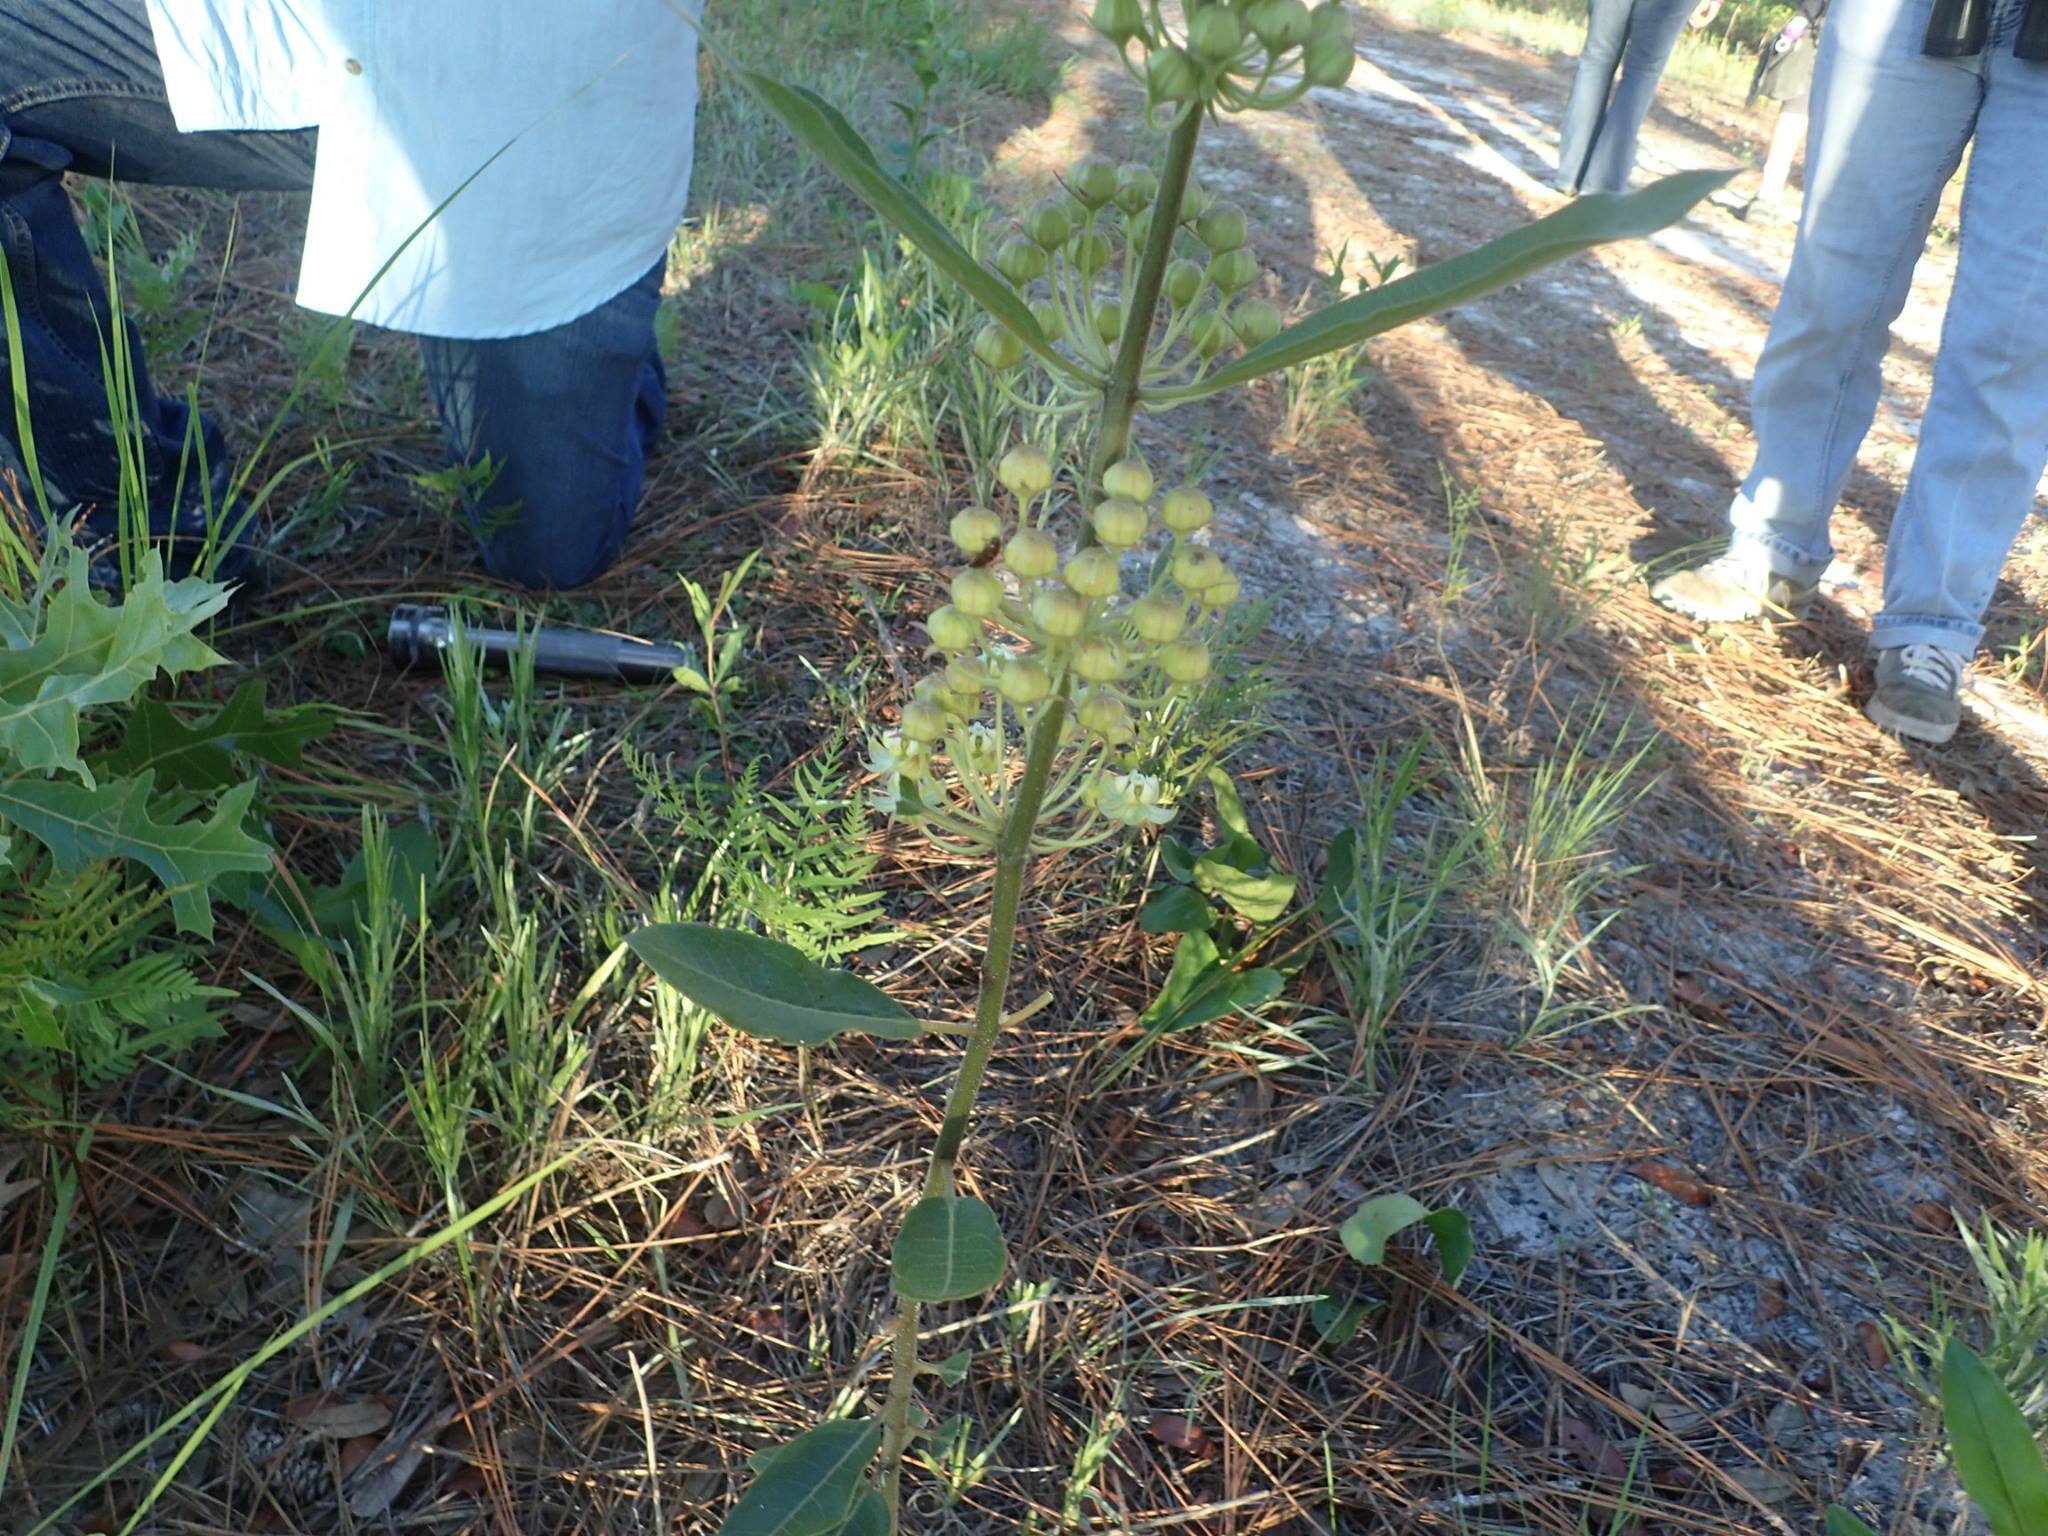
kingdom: Plantae
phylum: Tracheophyta
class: Magnoliopsida
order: Gentianales
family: Apocynaceae
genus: Asclepias
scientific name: Asclepias tomentosa
